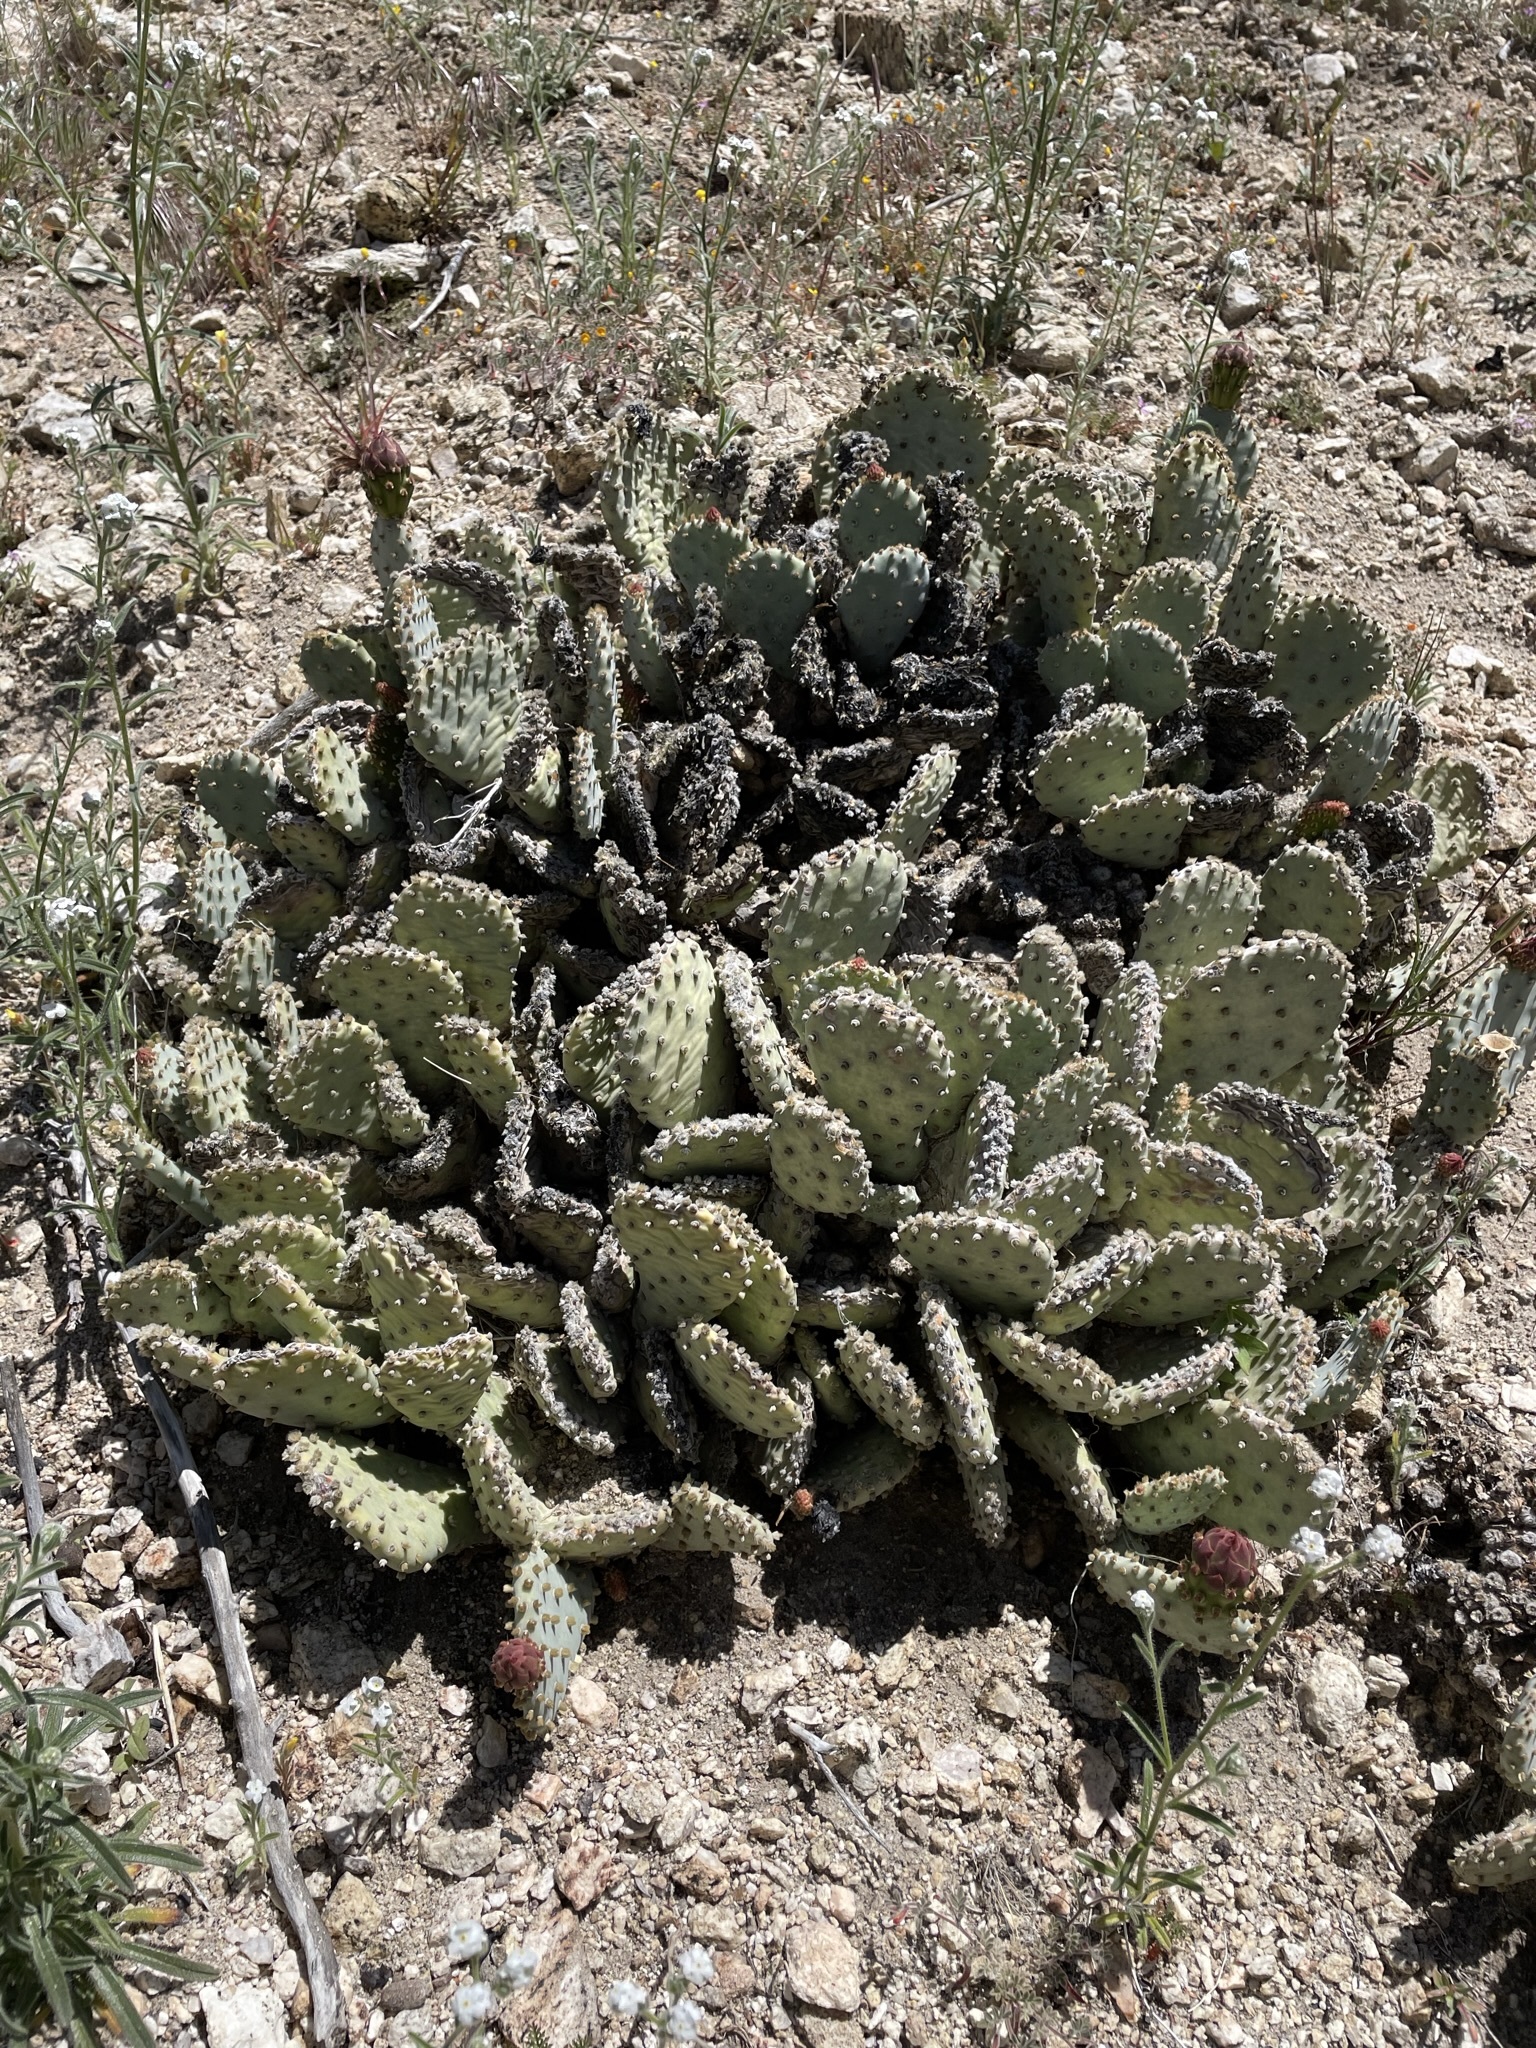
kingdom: Plantae
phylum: Tracheophyta
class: Magnoliopsida
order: Caryophyllales
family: Cactaceae
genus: Opuntia
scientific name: Opuntia basilaris
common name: Beavertail prickly-pear
